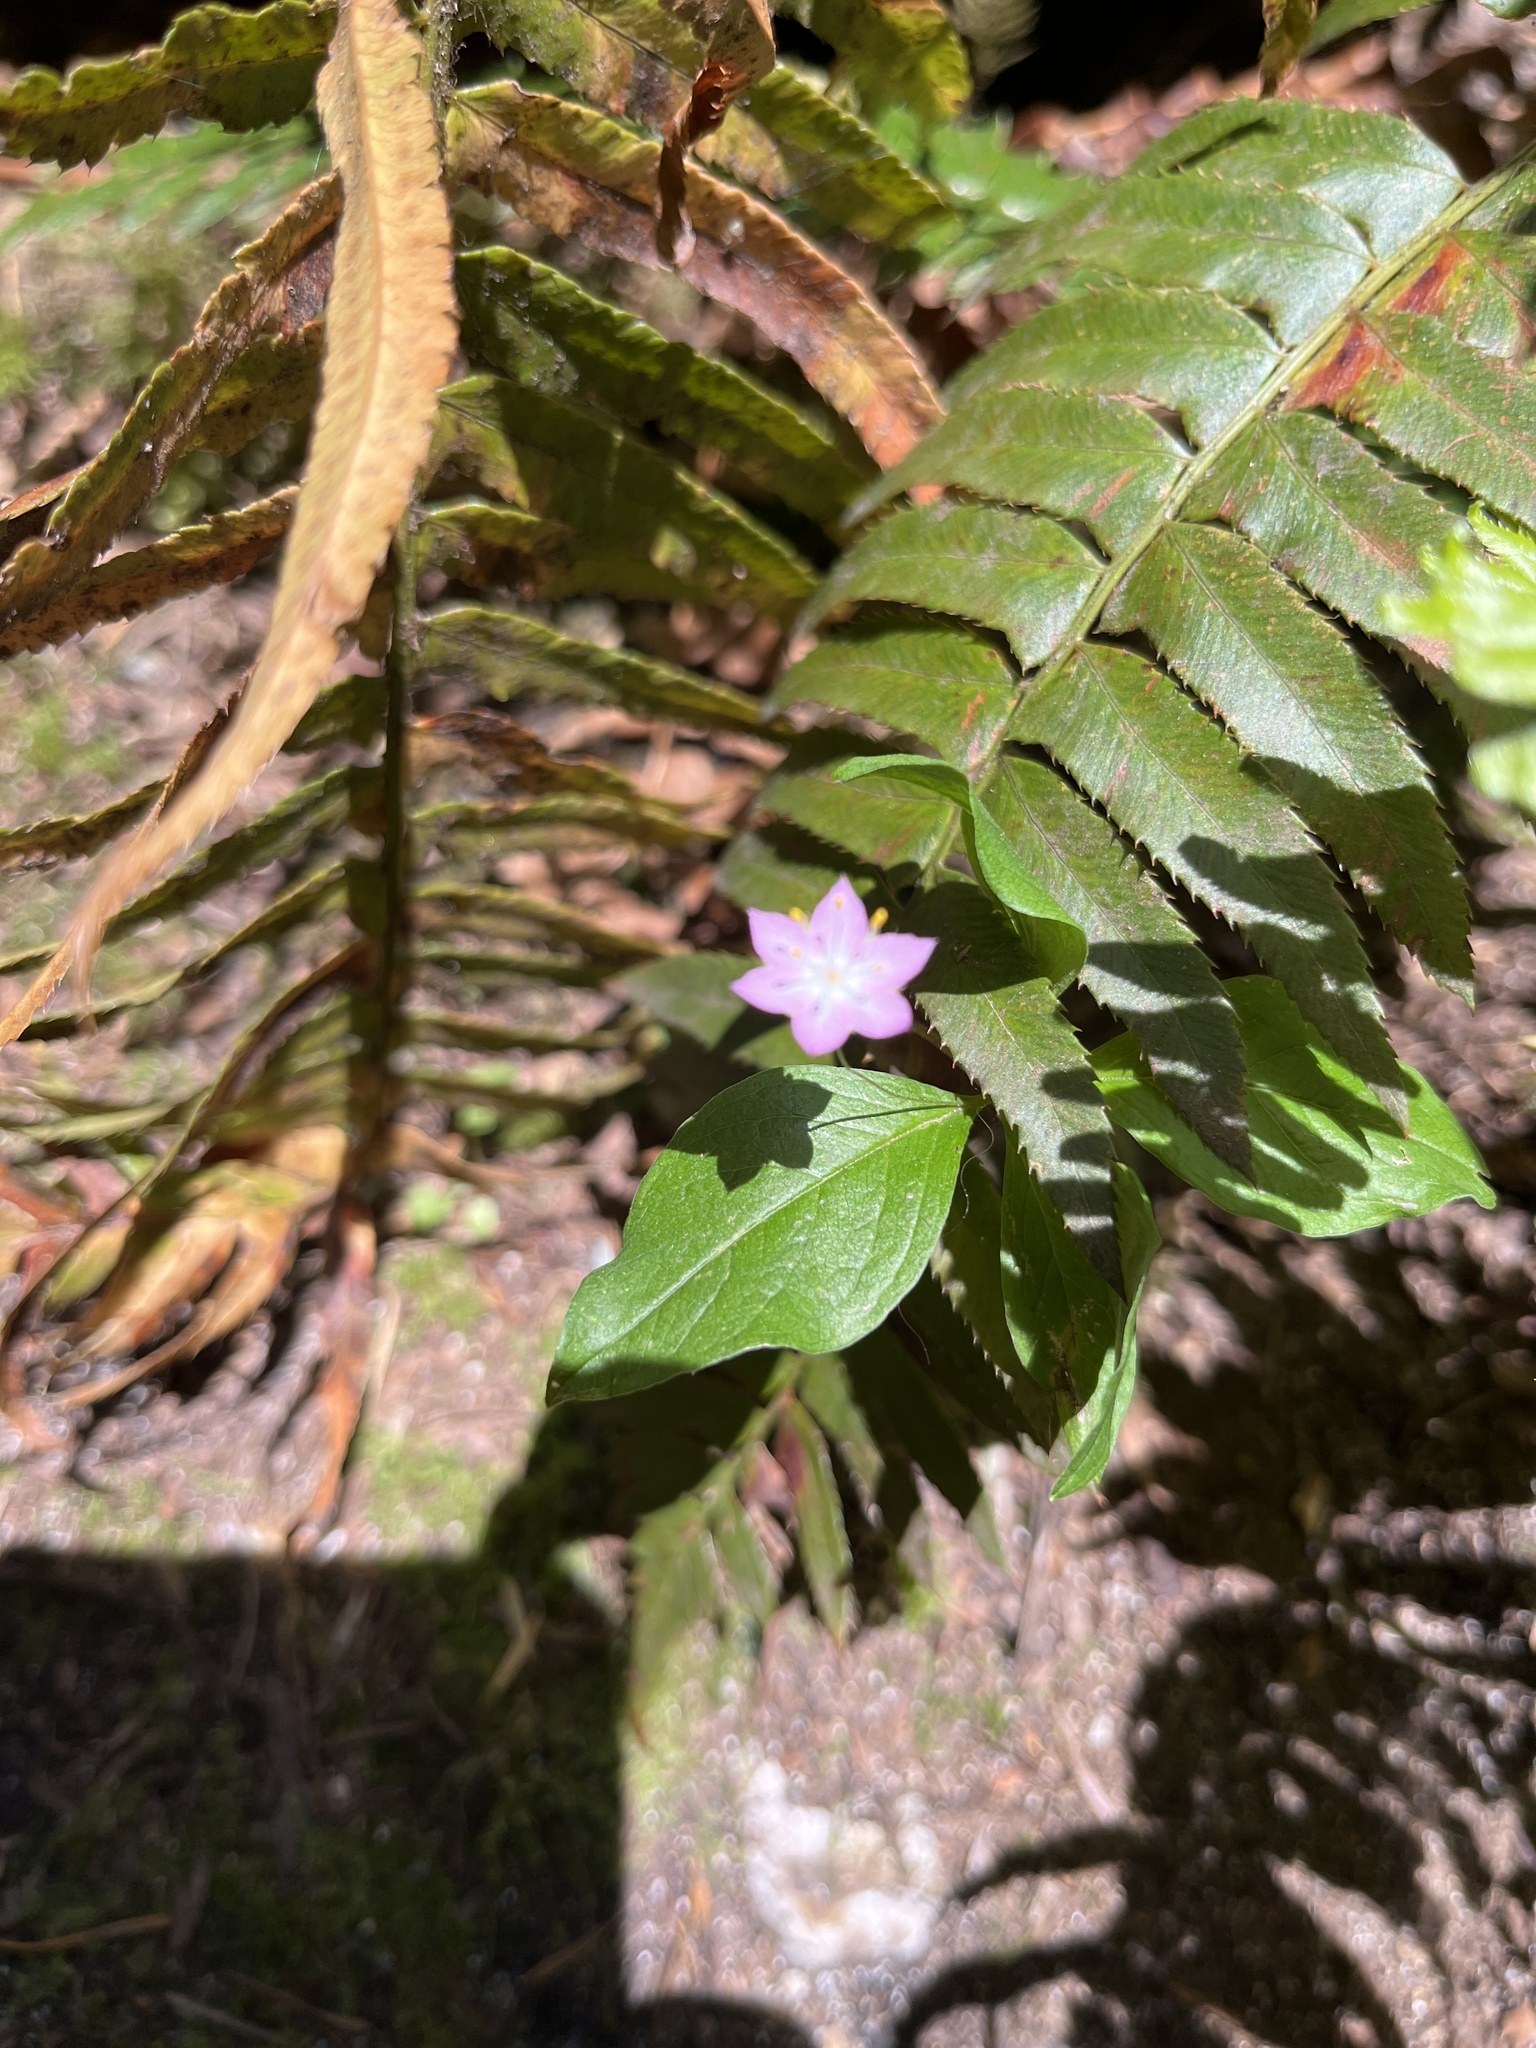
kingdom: Plantae
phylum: Tracheophyta
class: Magnoliopsida
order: Ericales
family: Primulaceae
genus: Lysimachia
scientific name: Lysimachia latifolia
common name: Pacific starflower
